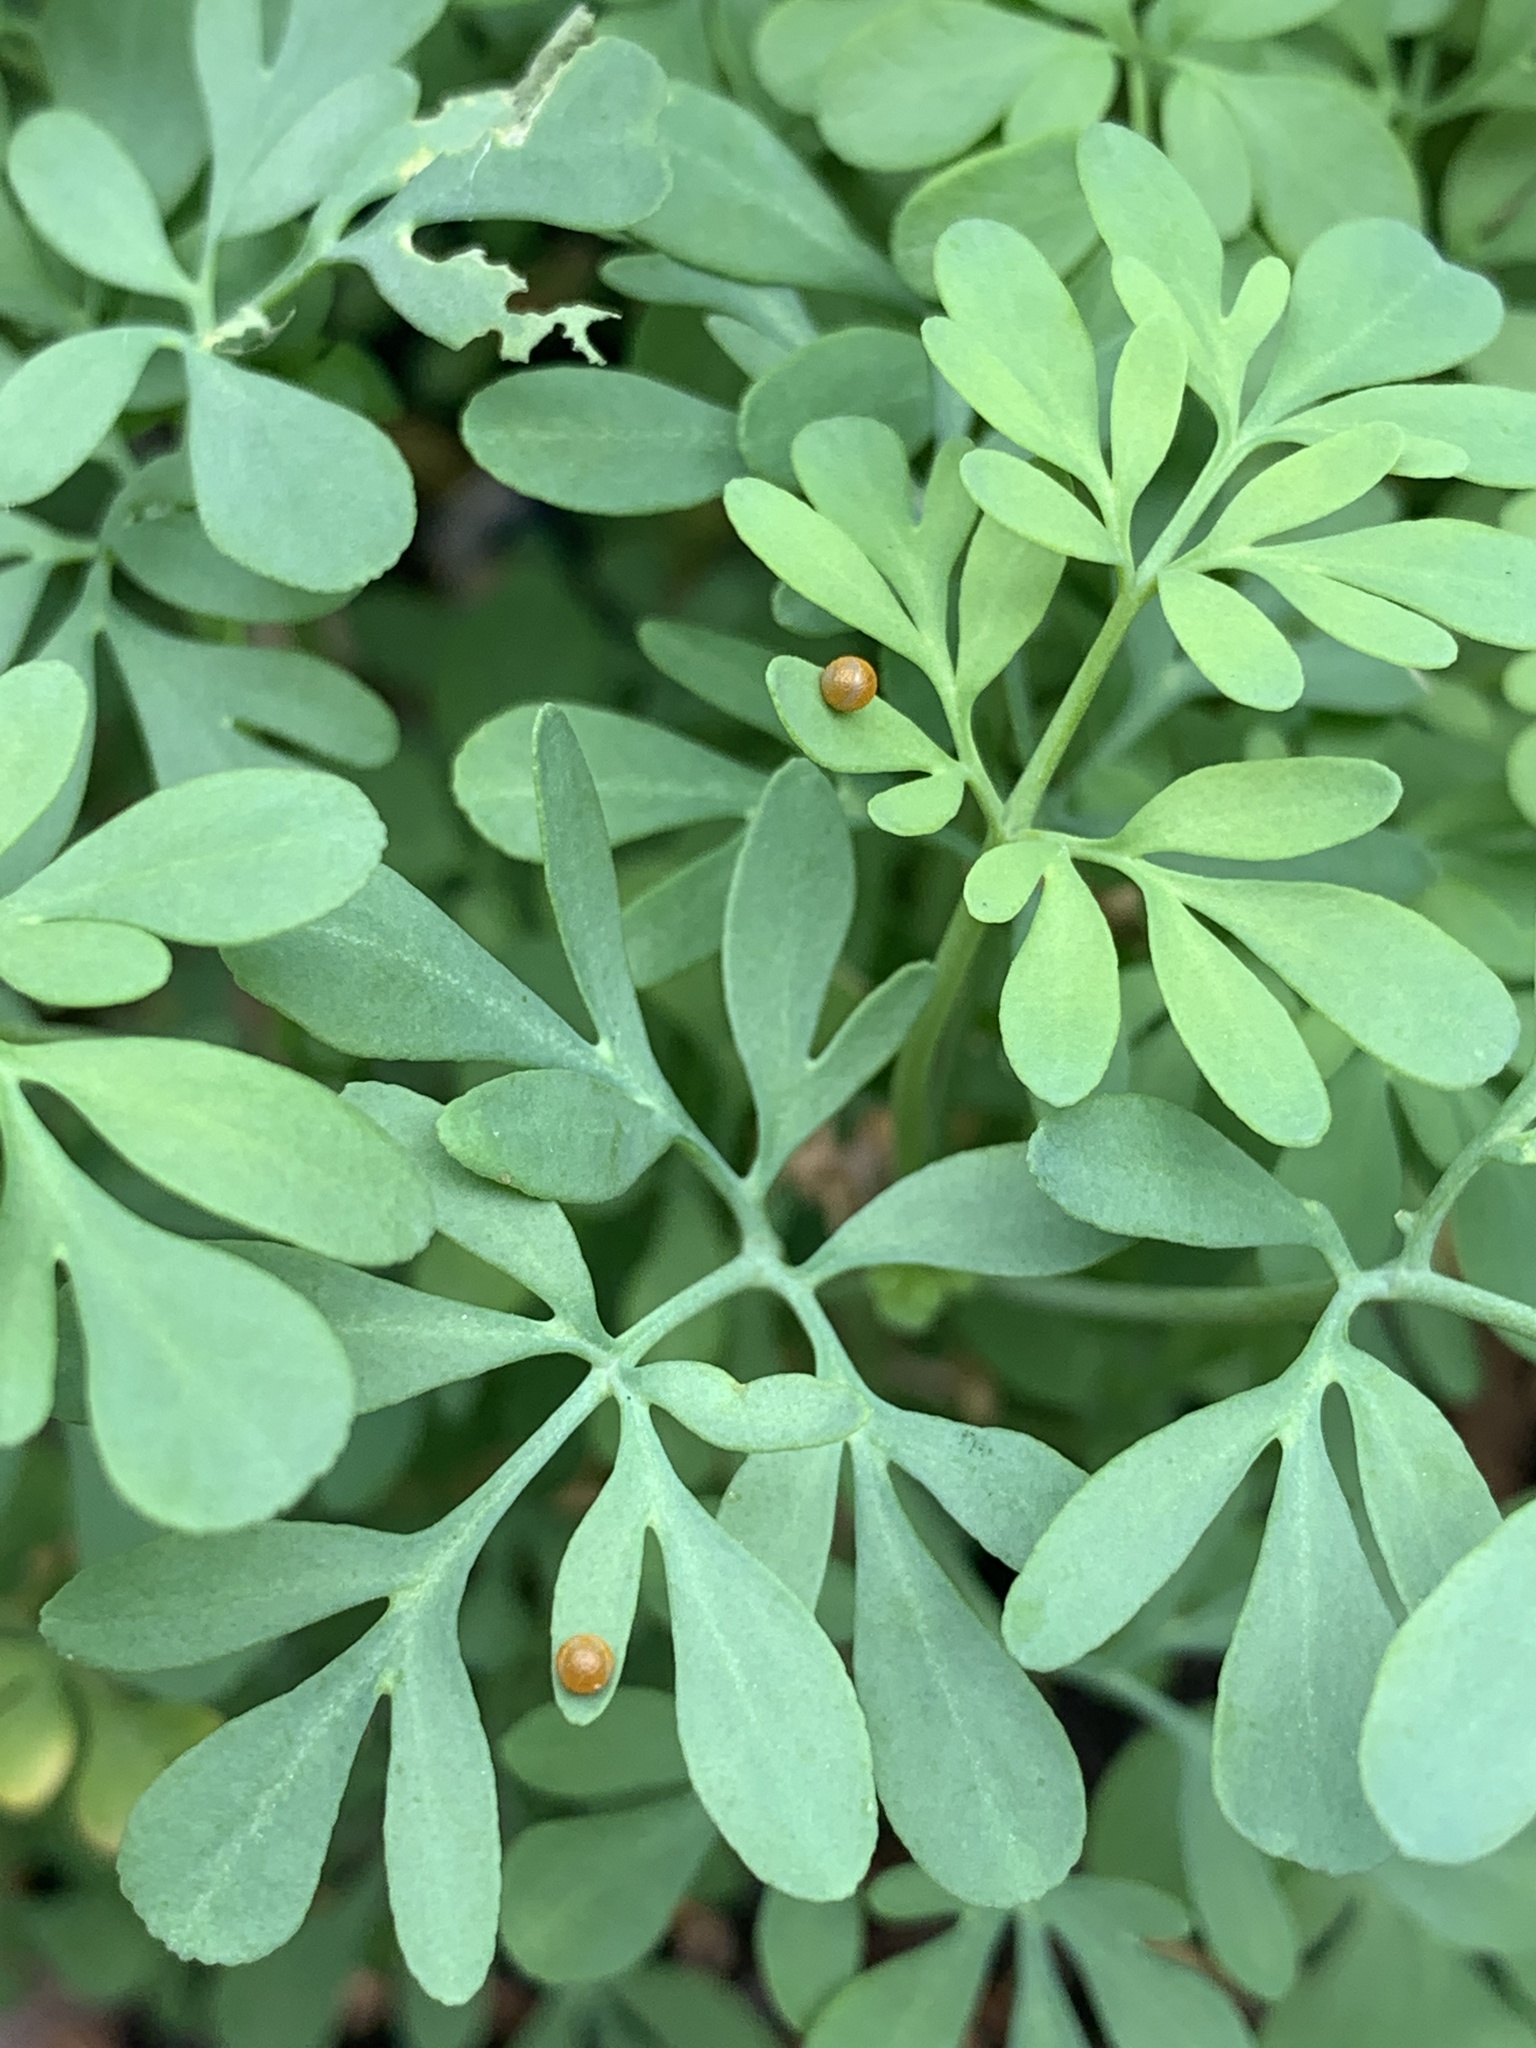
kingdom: Animalia
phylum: Arthropoda
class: Insecta
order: Lepidoptera
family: Papilionidae
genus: Papilio
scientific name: Papilio cresphontes
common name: Giant swallowtail
